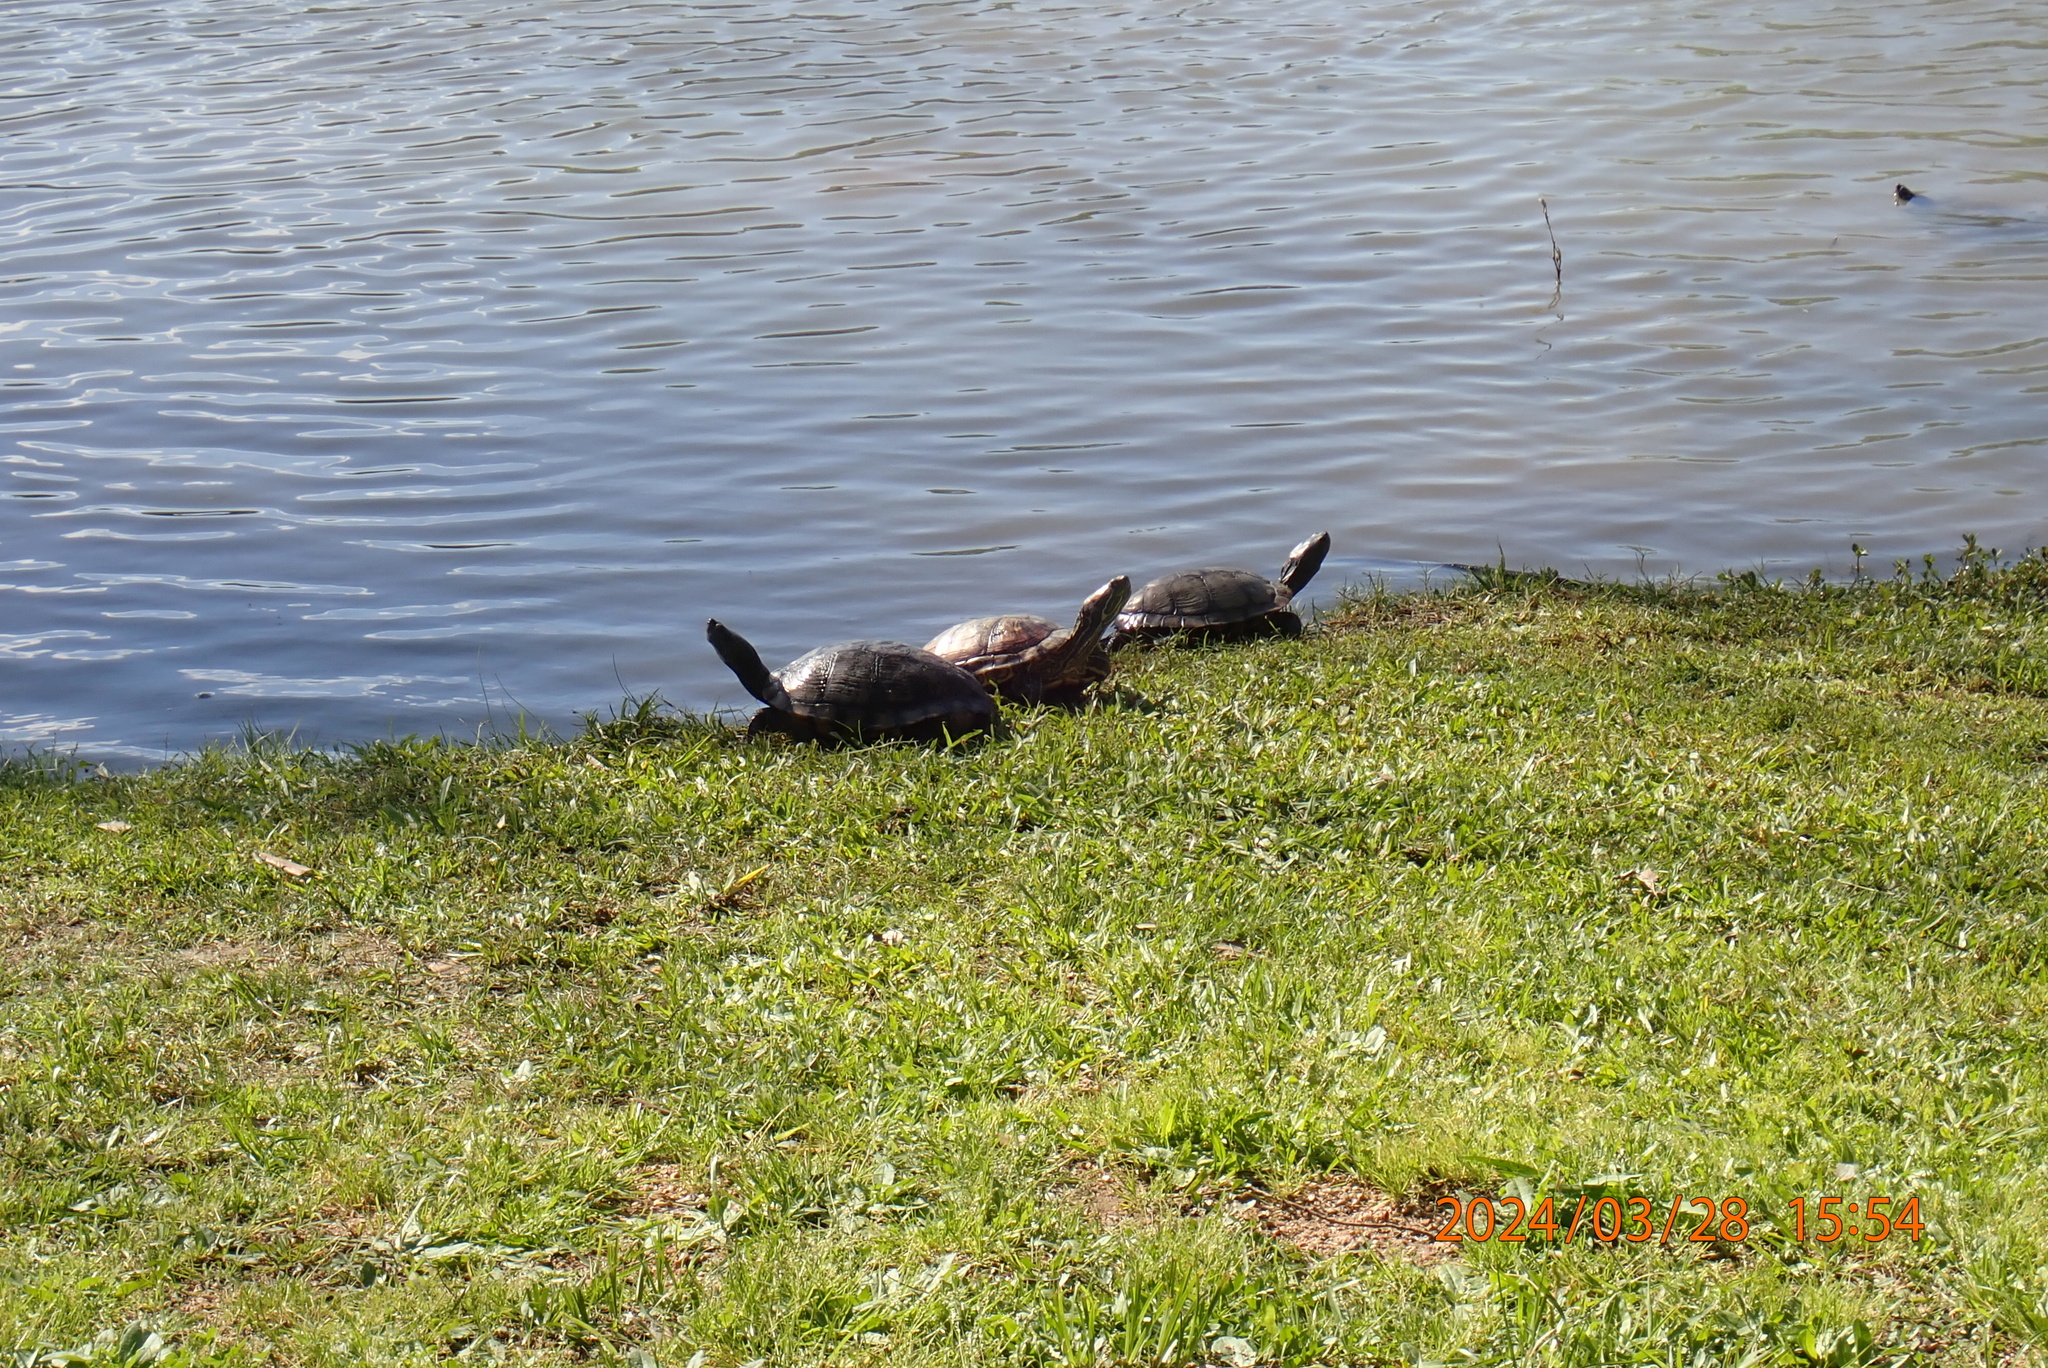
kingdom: Animalia
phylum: Chordata
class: Testudines
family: Emydidae
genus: Trachemys
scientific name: Trachemys scripta
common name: Slider
